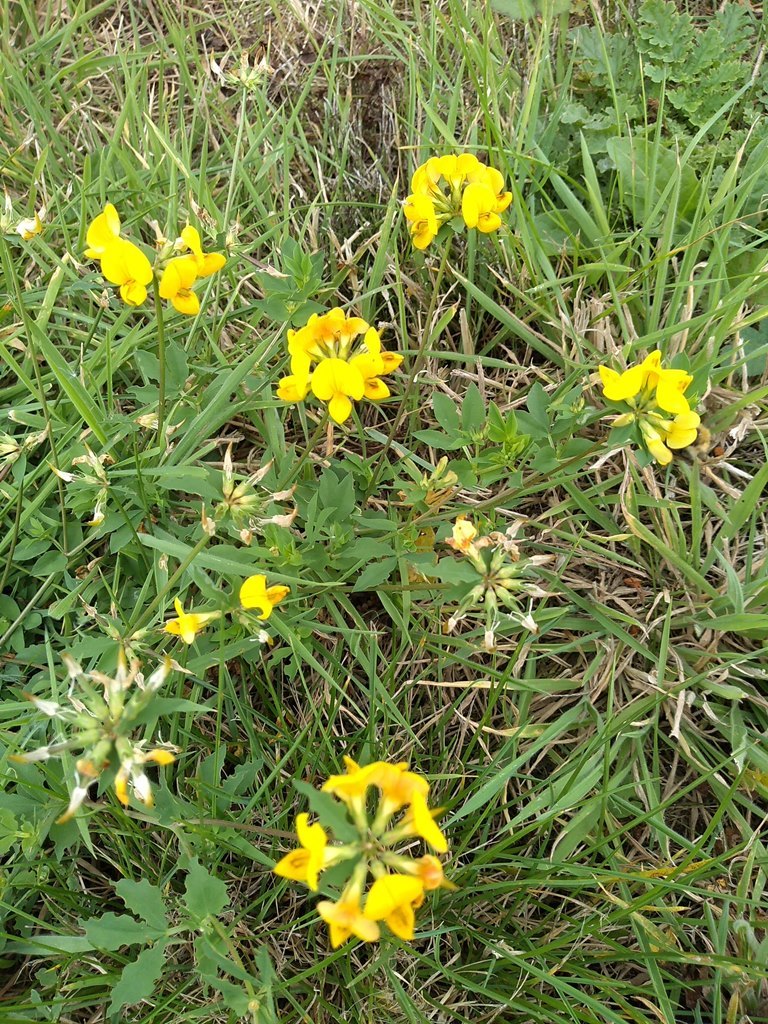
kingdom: Plantae
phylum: Tracheophyta
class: Magnoliopsida
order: Fabales
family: Fabaceae
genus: Lotus
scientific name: Lotus corniculatus
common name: Common bird's-foot-trefoil
